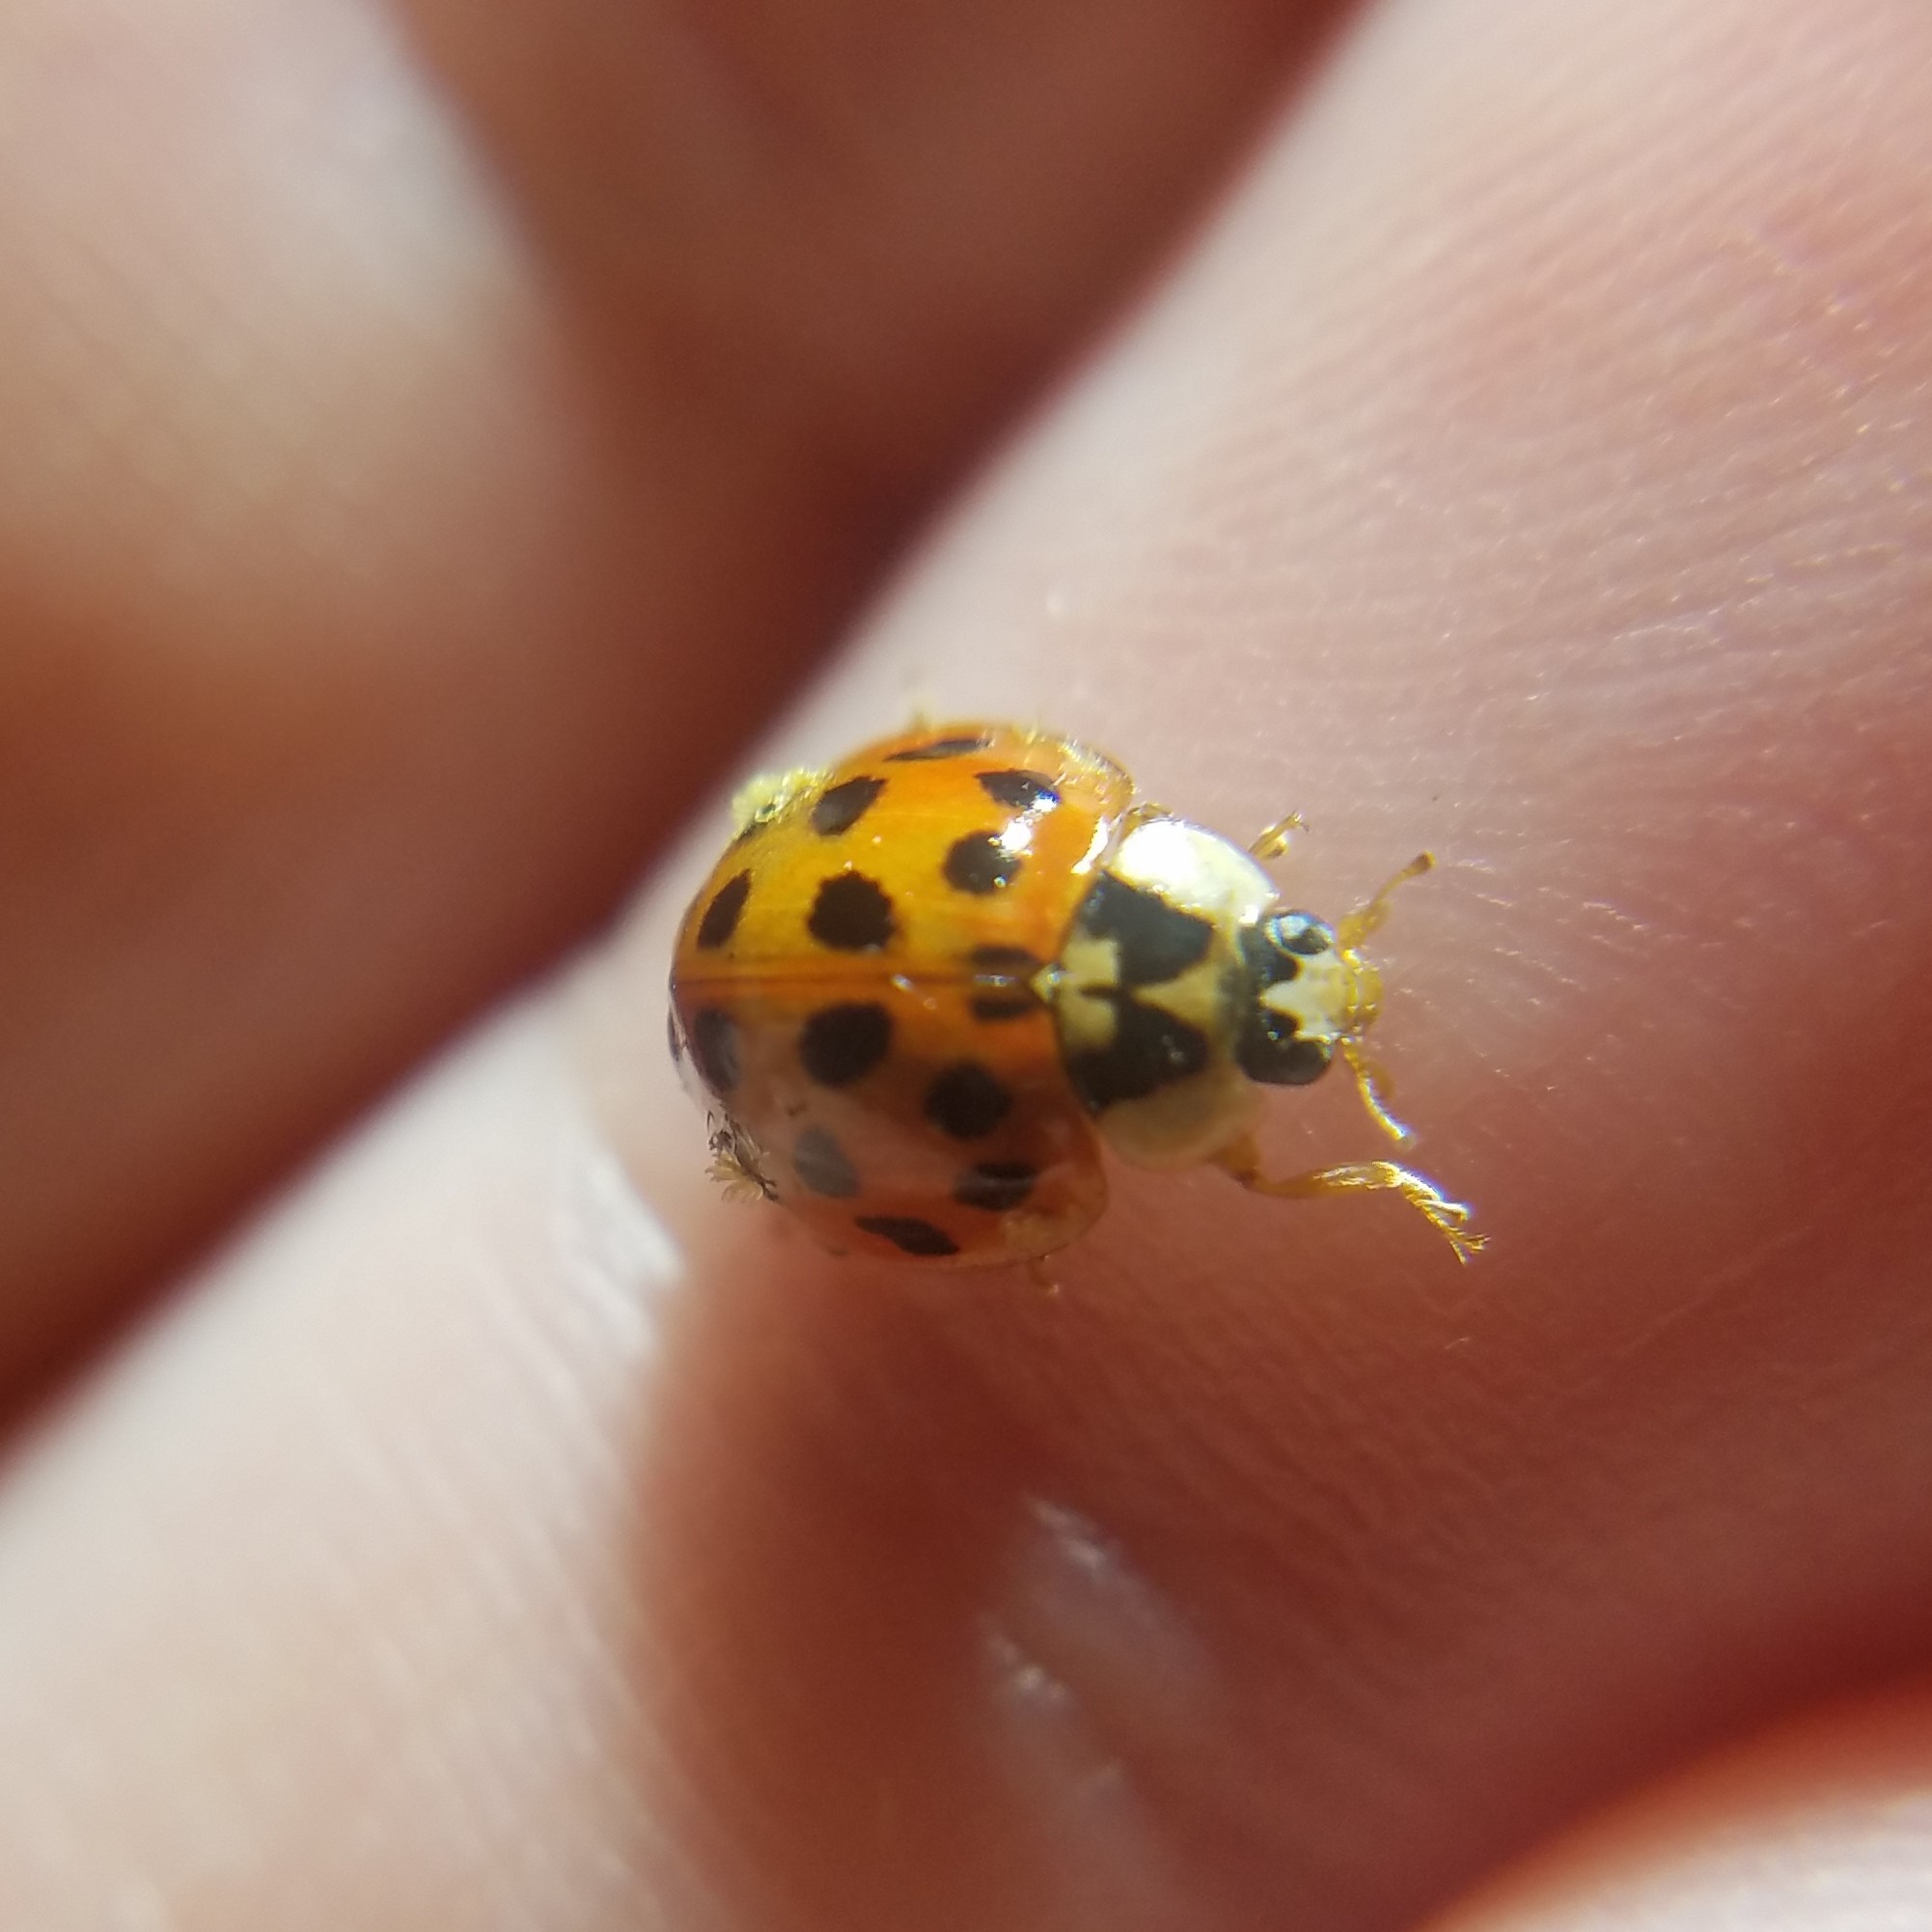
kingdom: Fungi
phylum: Ascomycota
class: Laboulbeniomycetes
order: Laboulbeniales
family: Laboulbeniaceae
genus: Hesperomyces
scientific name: Hesperomyces harmoniae
